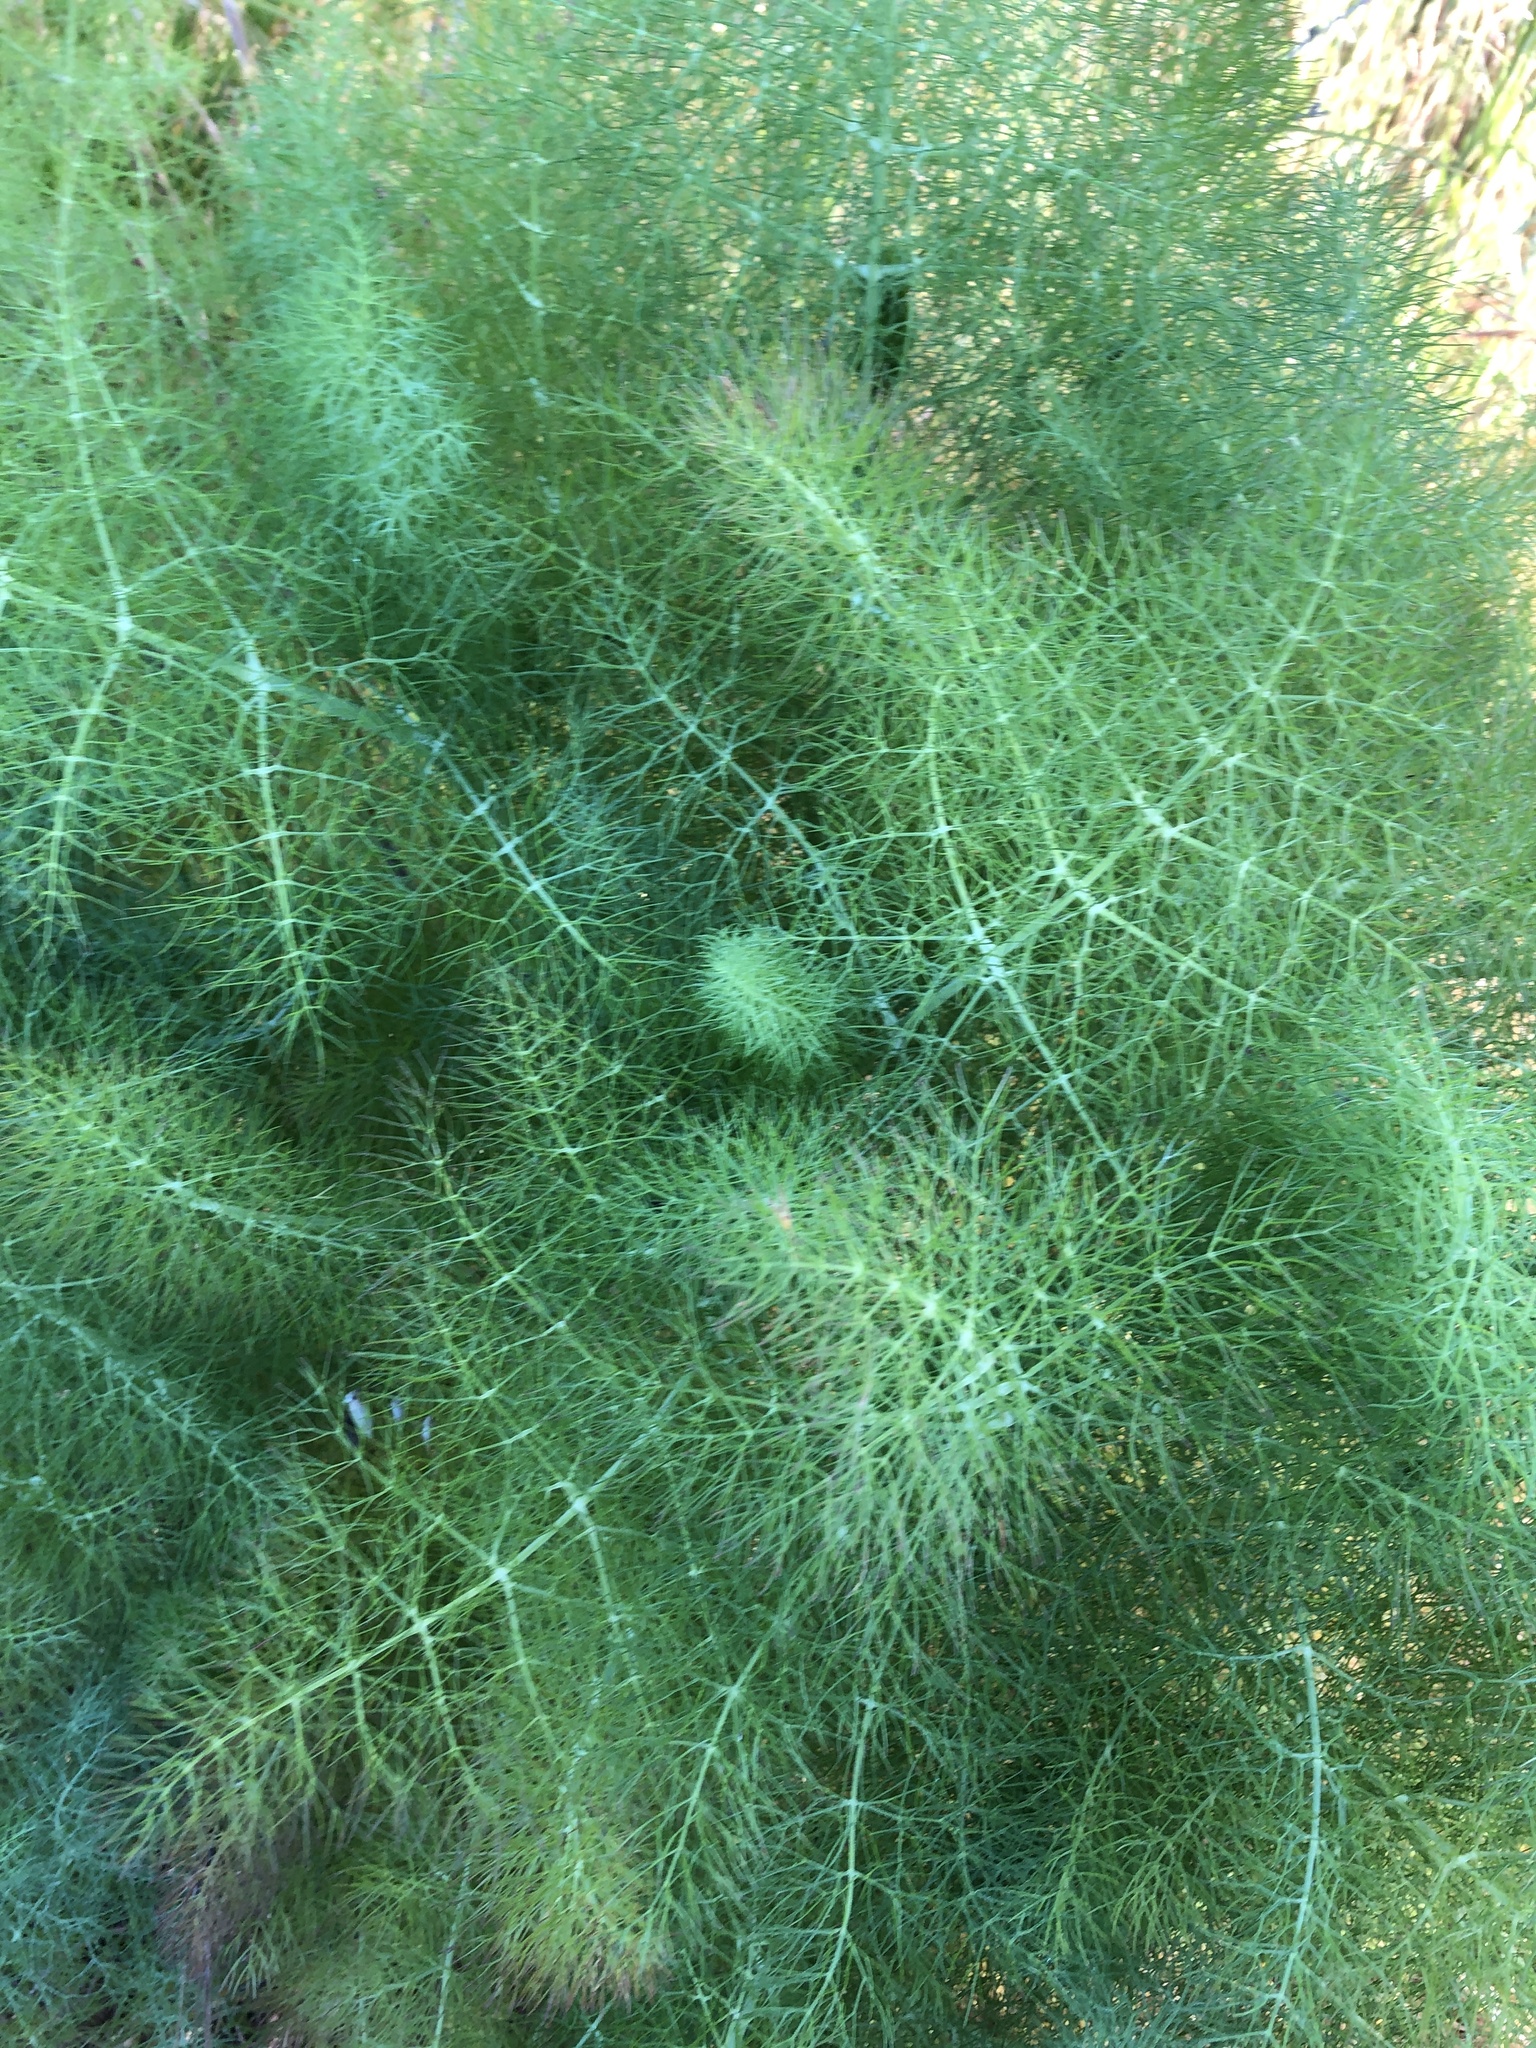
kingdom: Plantae
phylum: Tracheophyta
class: Magnoliopsida
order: Apiales
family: Apiaceae
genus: Foeniculum
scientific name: Foeniculum vulgare
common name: Fennel
